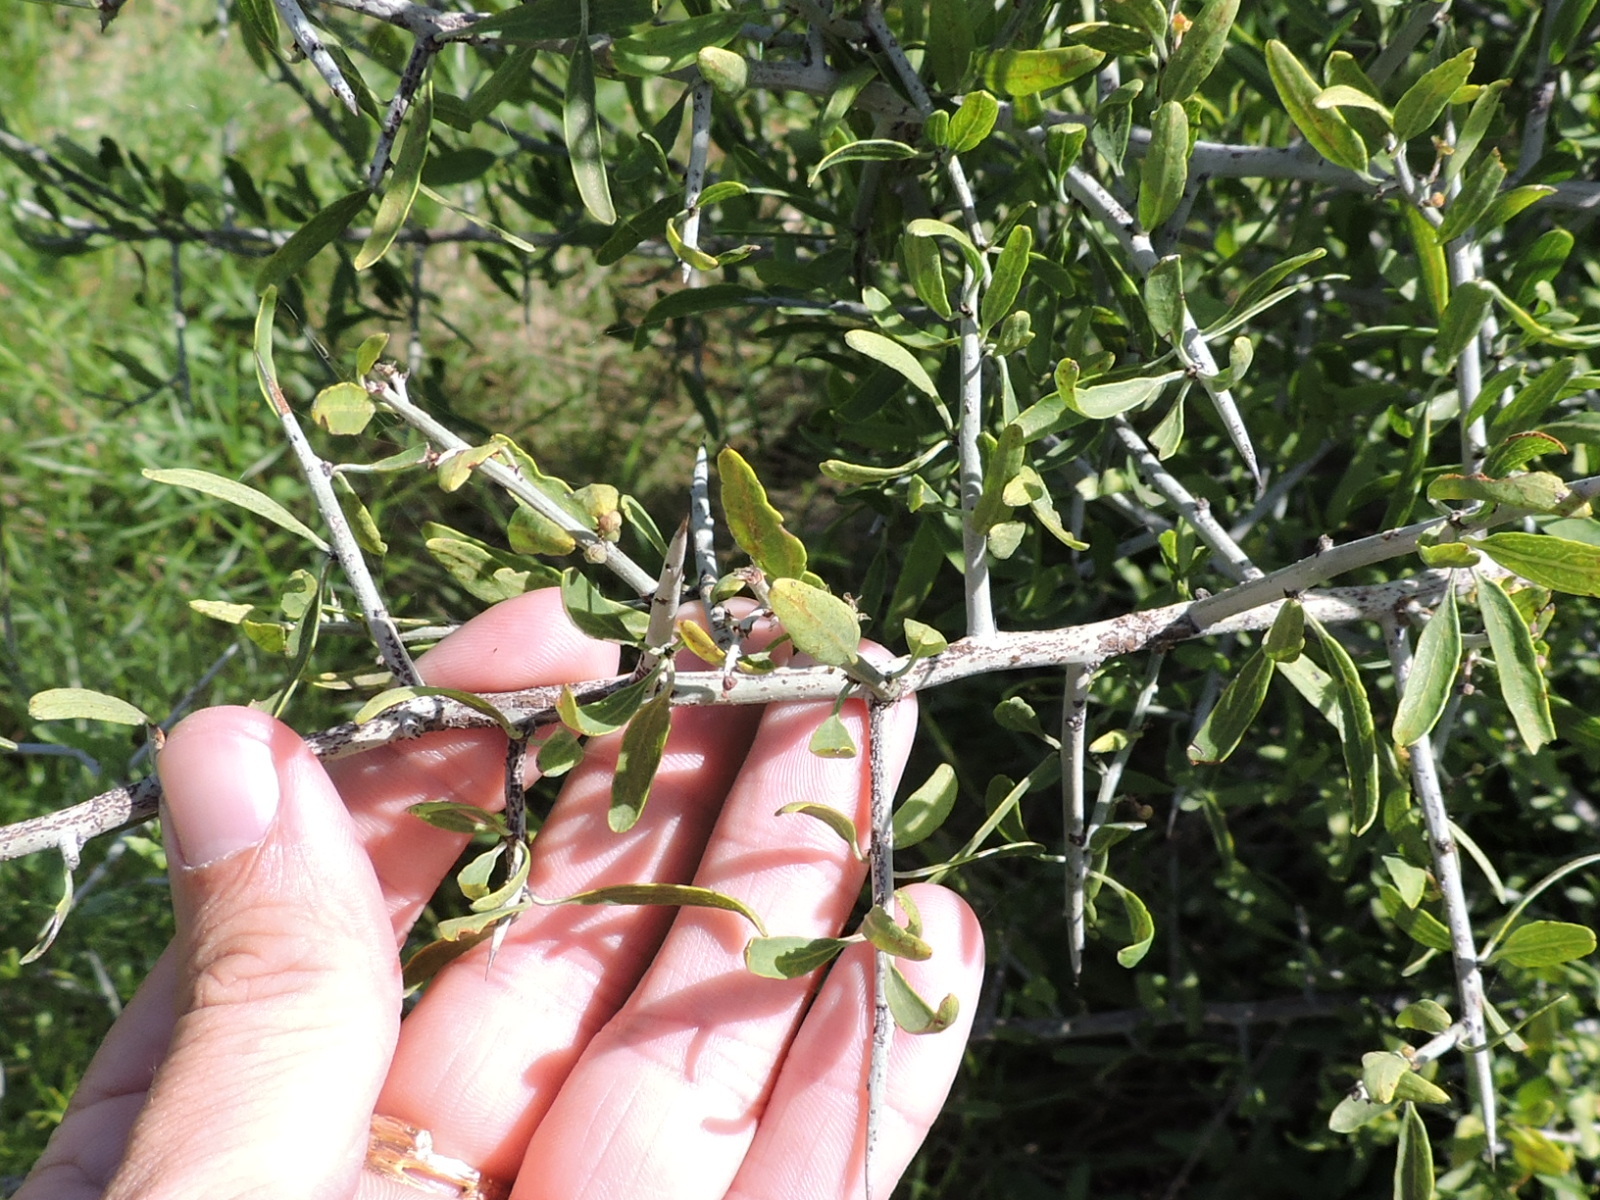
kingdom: Plantae
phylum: Tracheophyta
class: Magnoliopsida
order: Rosales
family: Rhamnaceae
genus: Sarcomphalus
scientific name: Sarcomphalus obtusifolius
